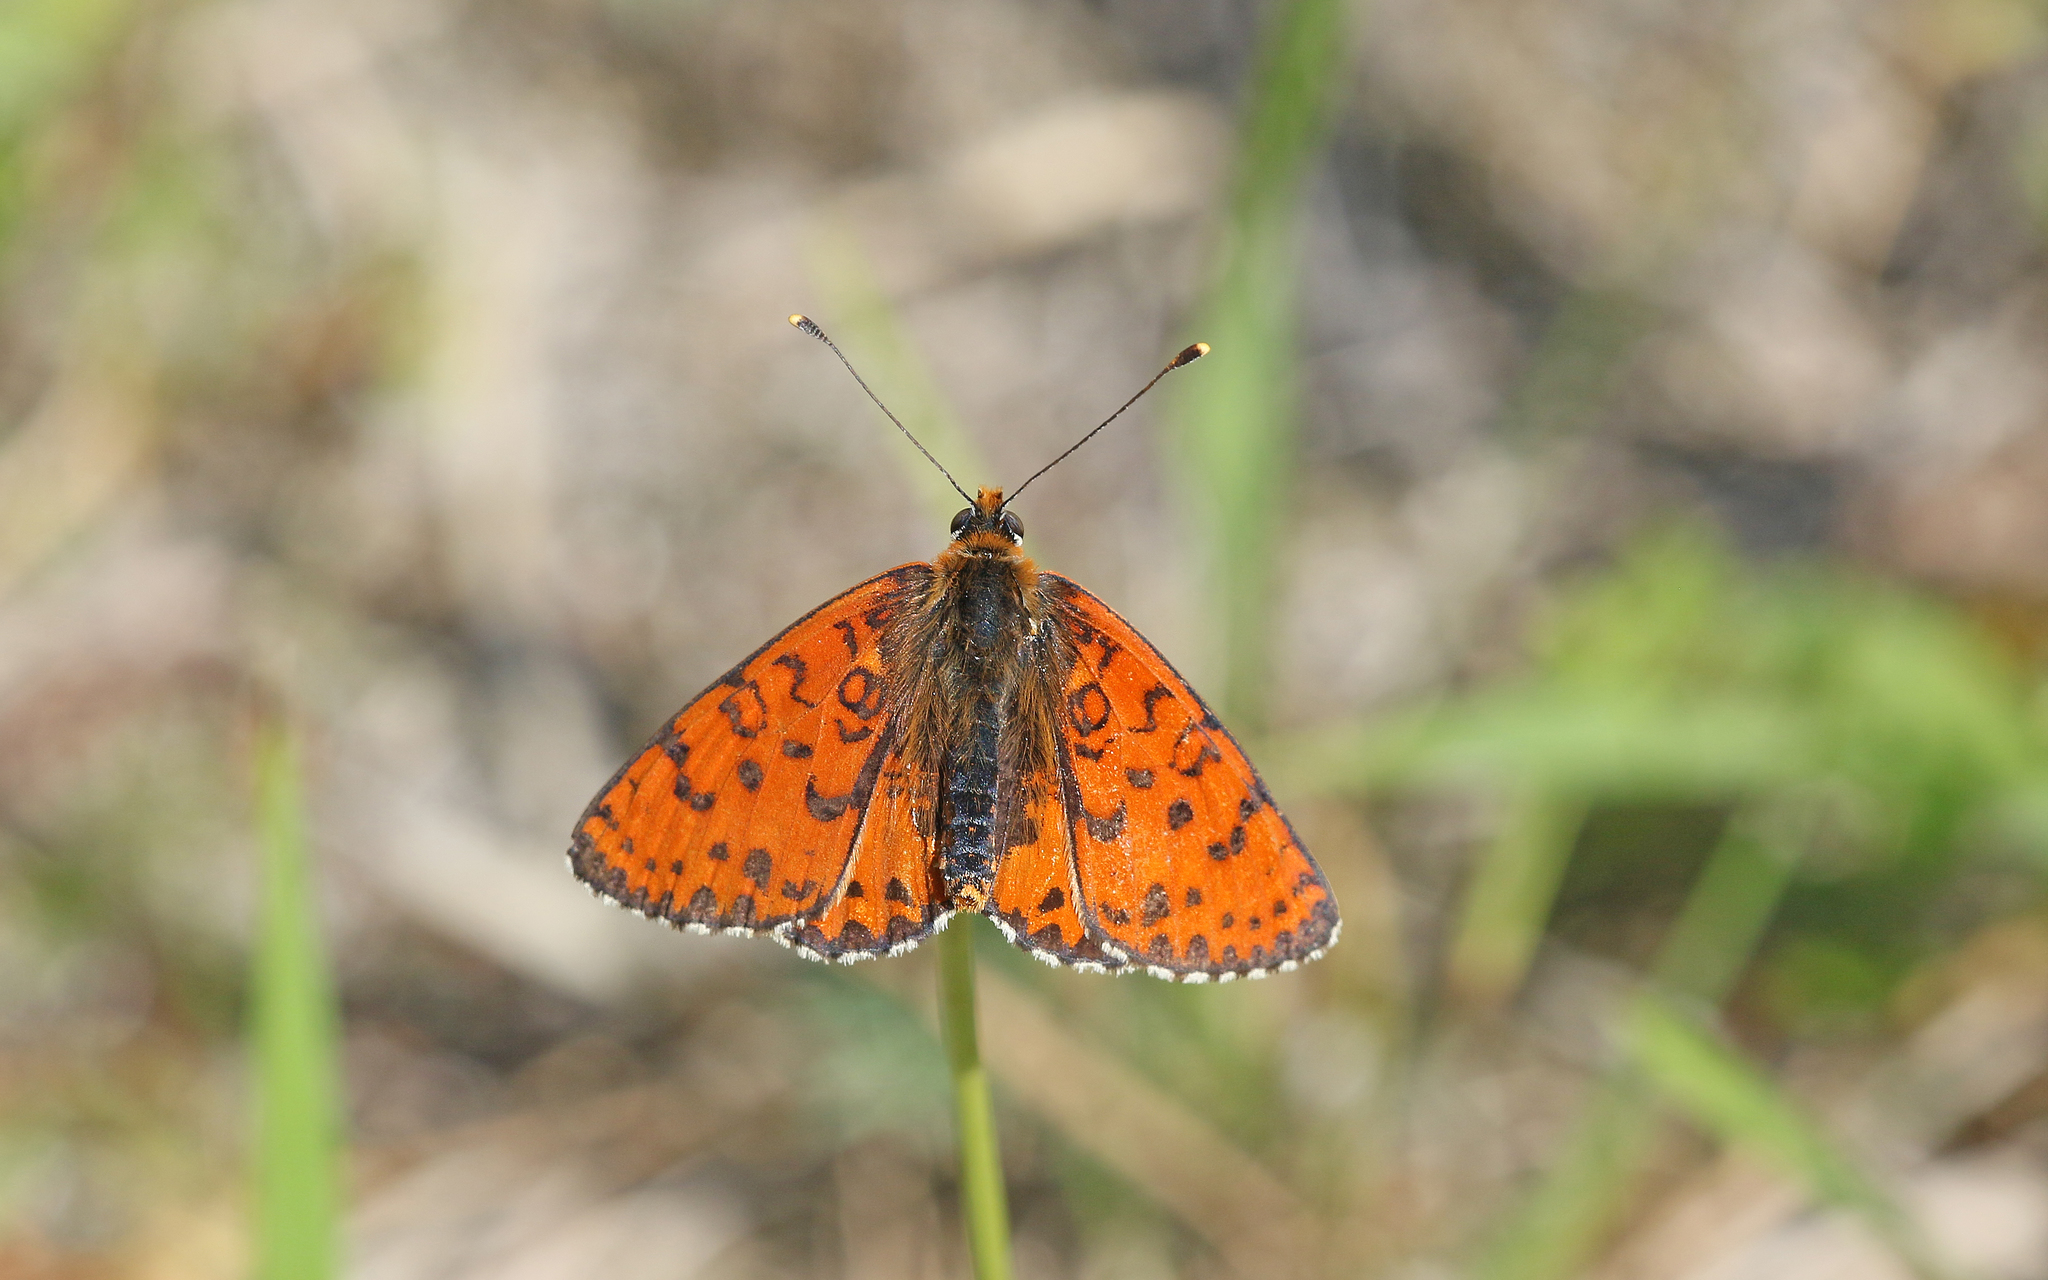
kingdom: Animalia
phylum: Arthropoda
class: Insecta
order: Lepidoptera
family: Nymphalidae
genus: Melitaea
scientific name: Melitaea didyma
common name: Spotted fritillary
